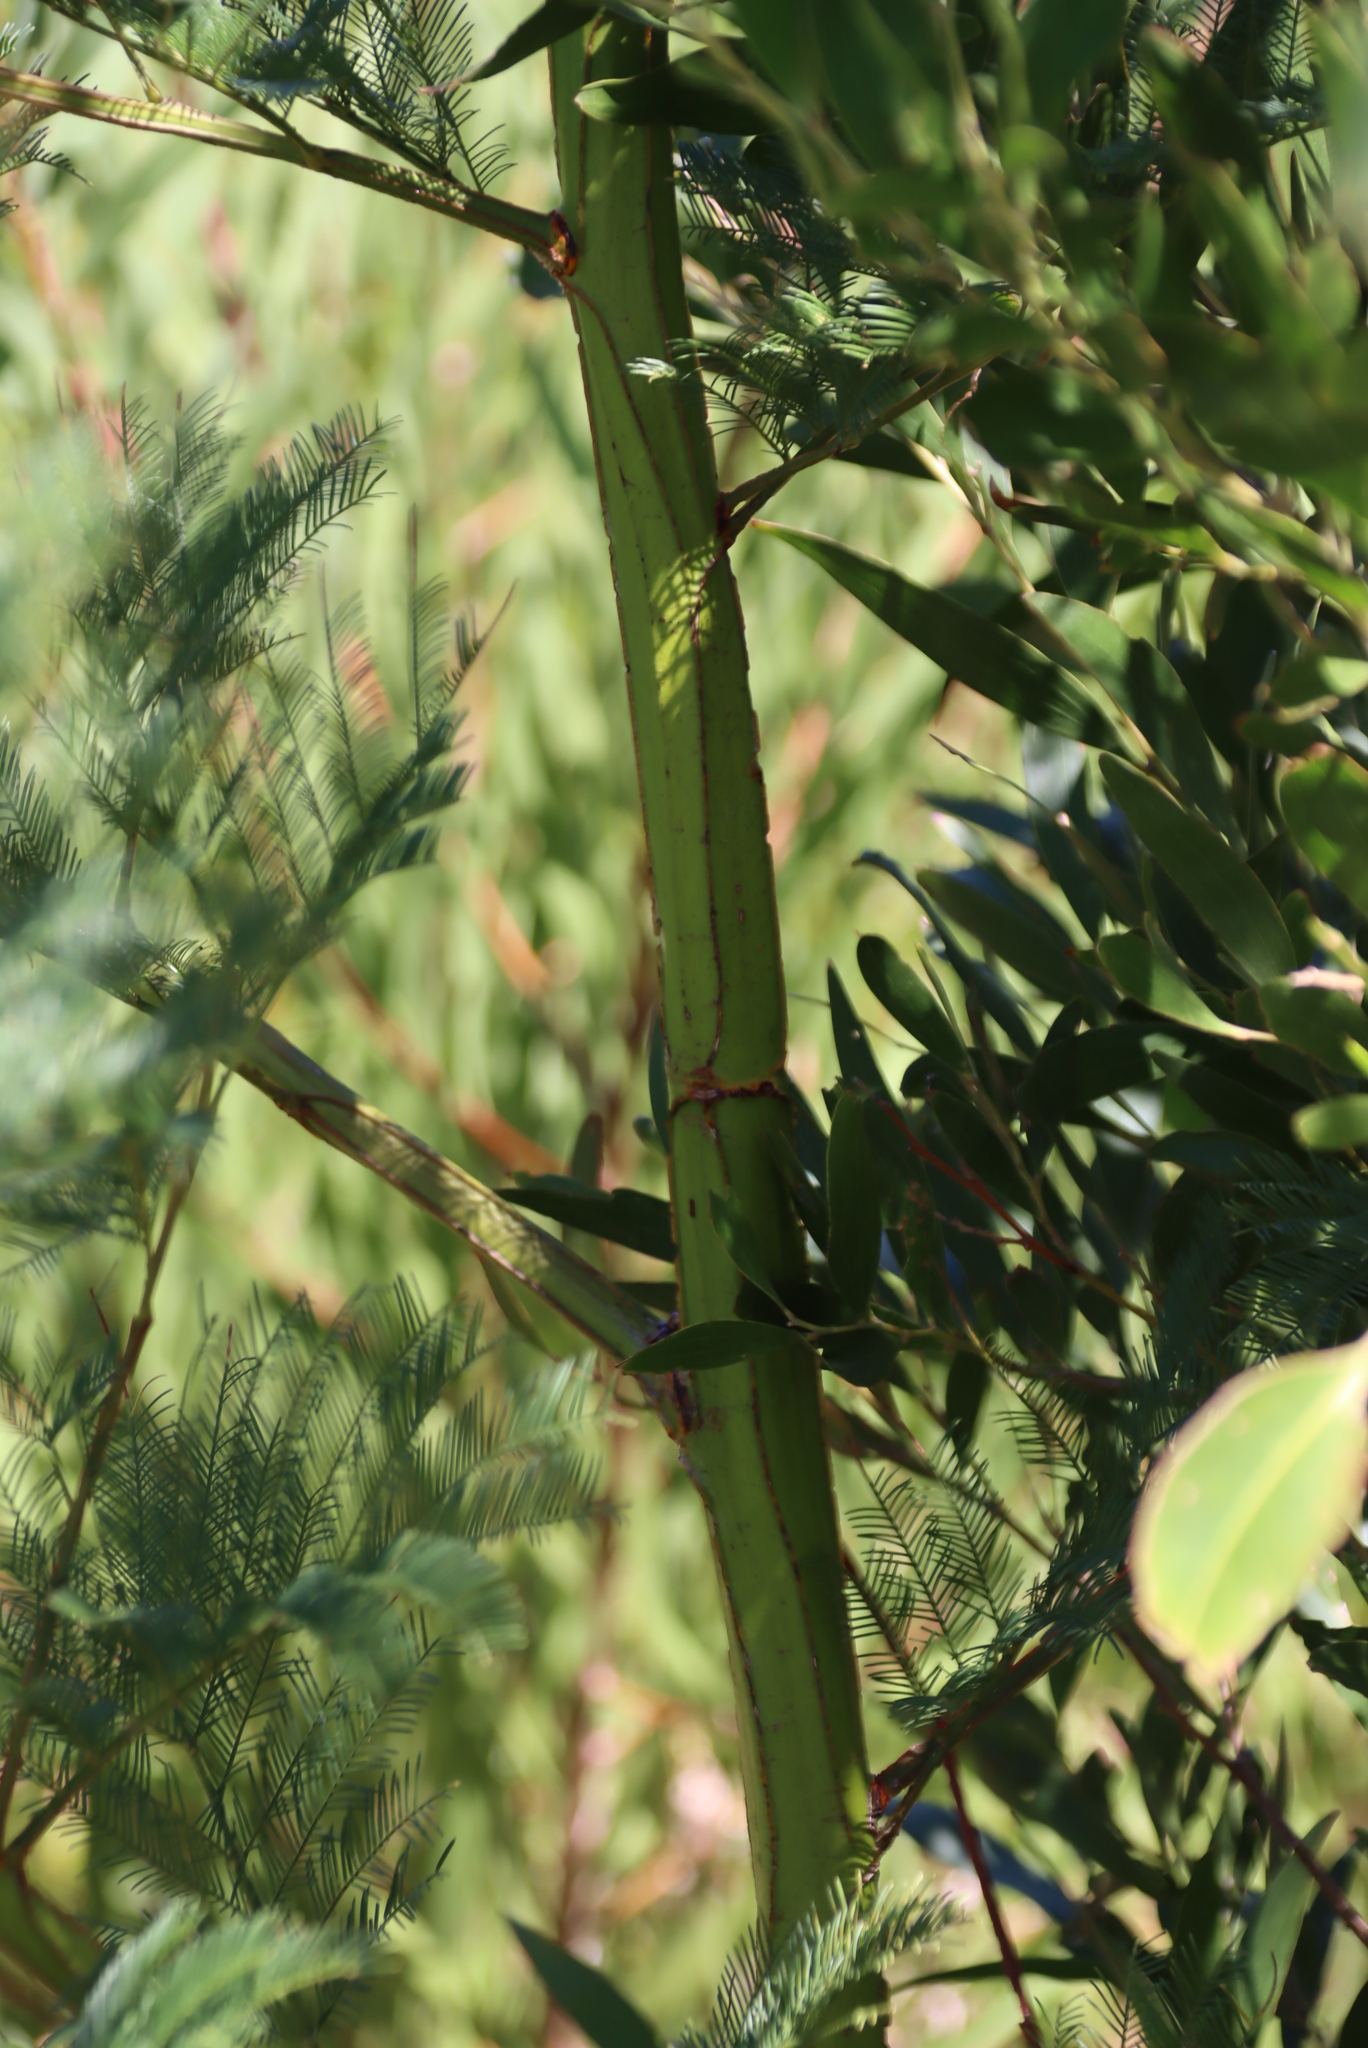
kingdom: Plantae
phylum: Tracheophyta
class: Magnoliopsida
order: Fabales
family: Fabaceae
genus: Acacia
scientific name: Acacia decurrens
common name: Green wattle
